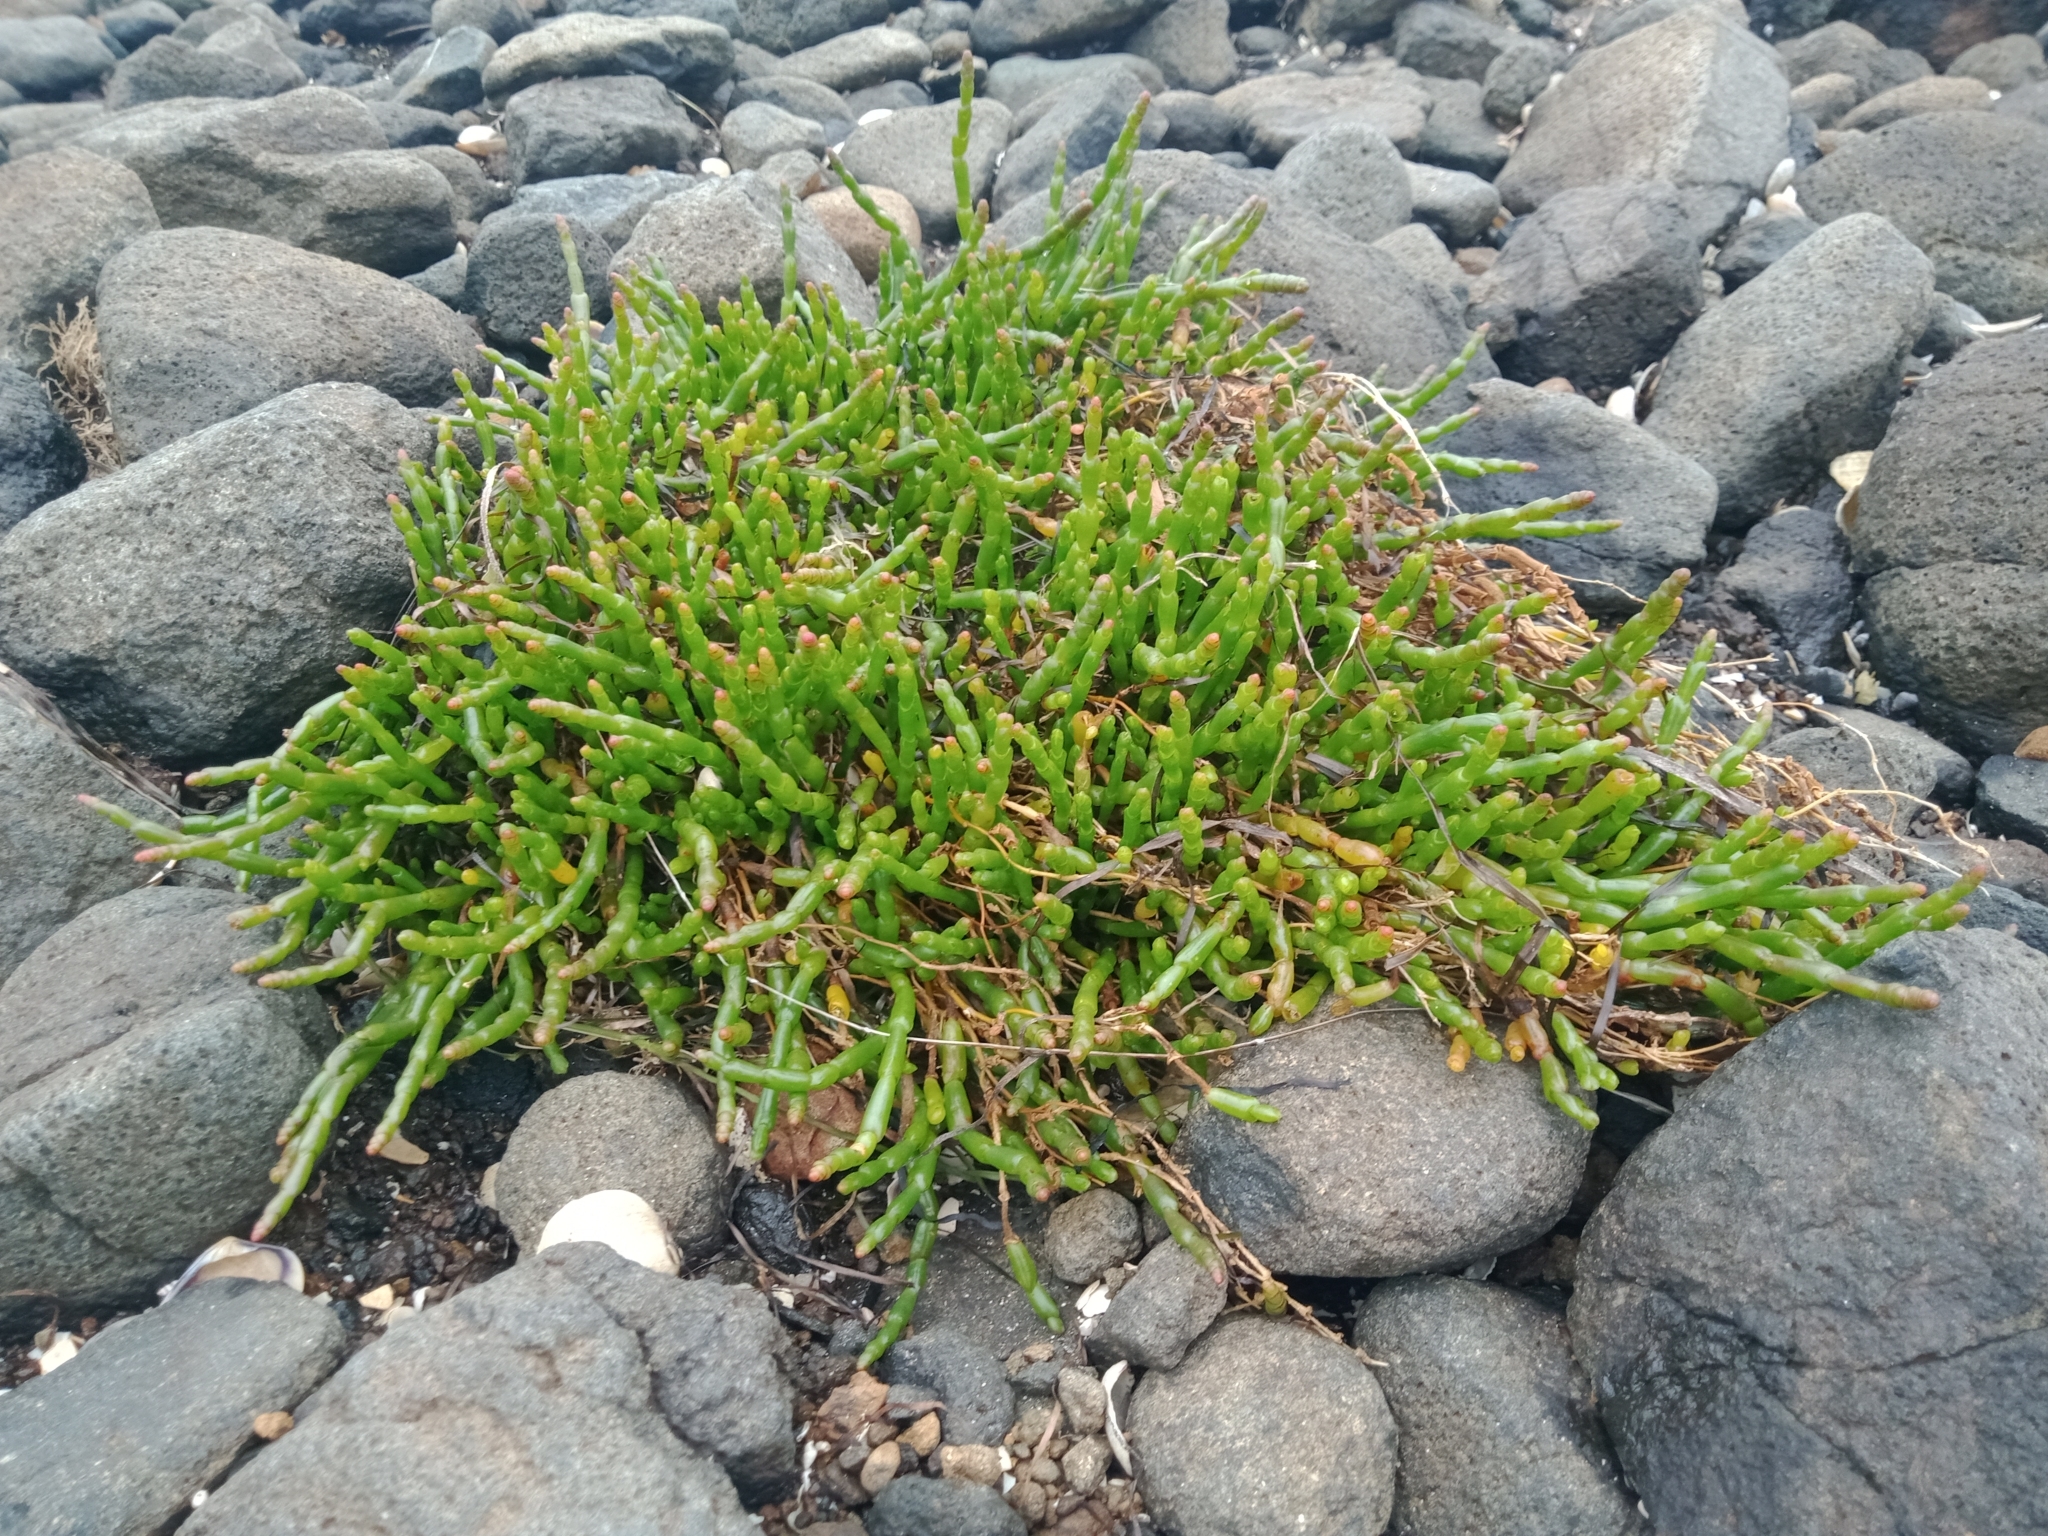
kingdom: Plantae
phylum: Tracheophyta
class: Magnoliopsida
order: Caryophyllales
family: Amaranthaceae
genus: Salicornia
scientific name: Salicornia quinqueflora
